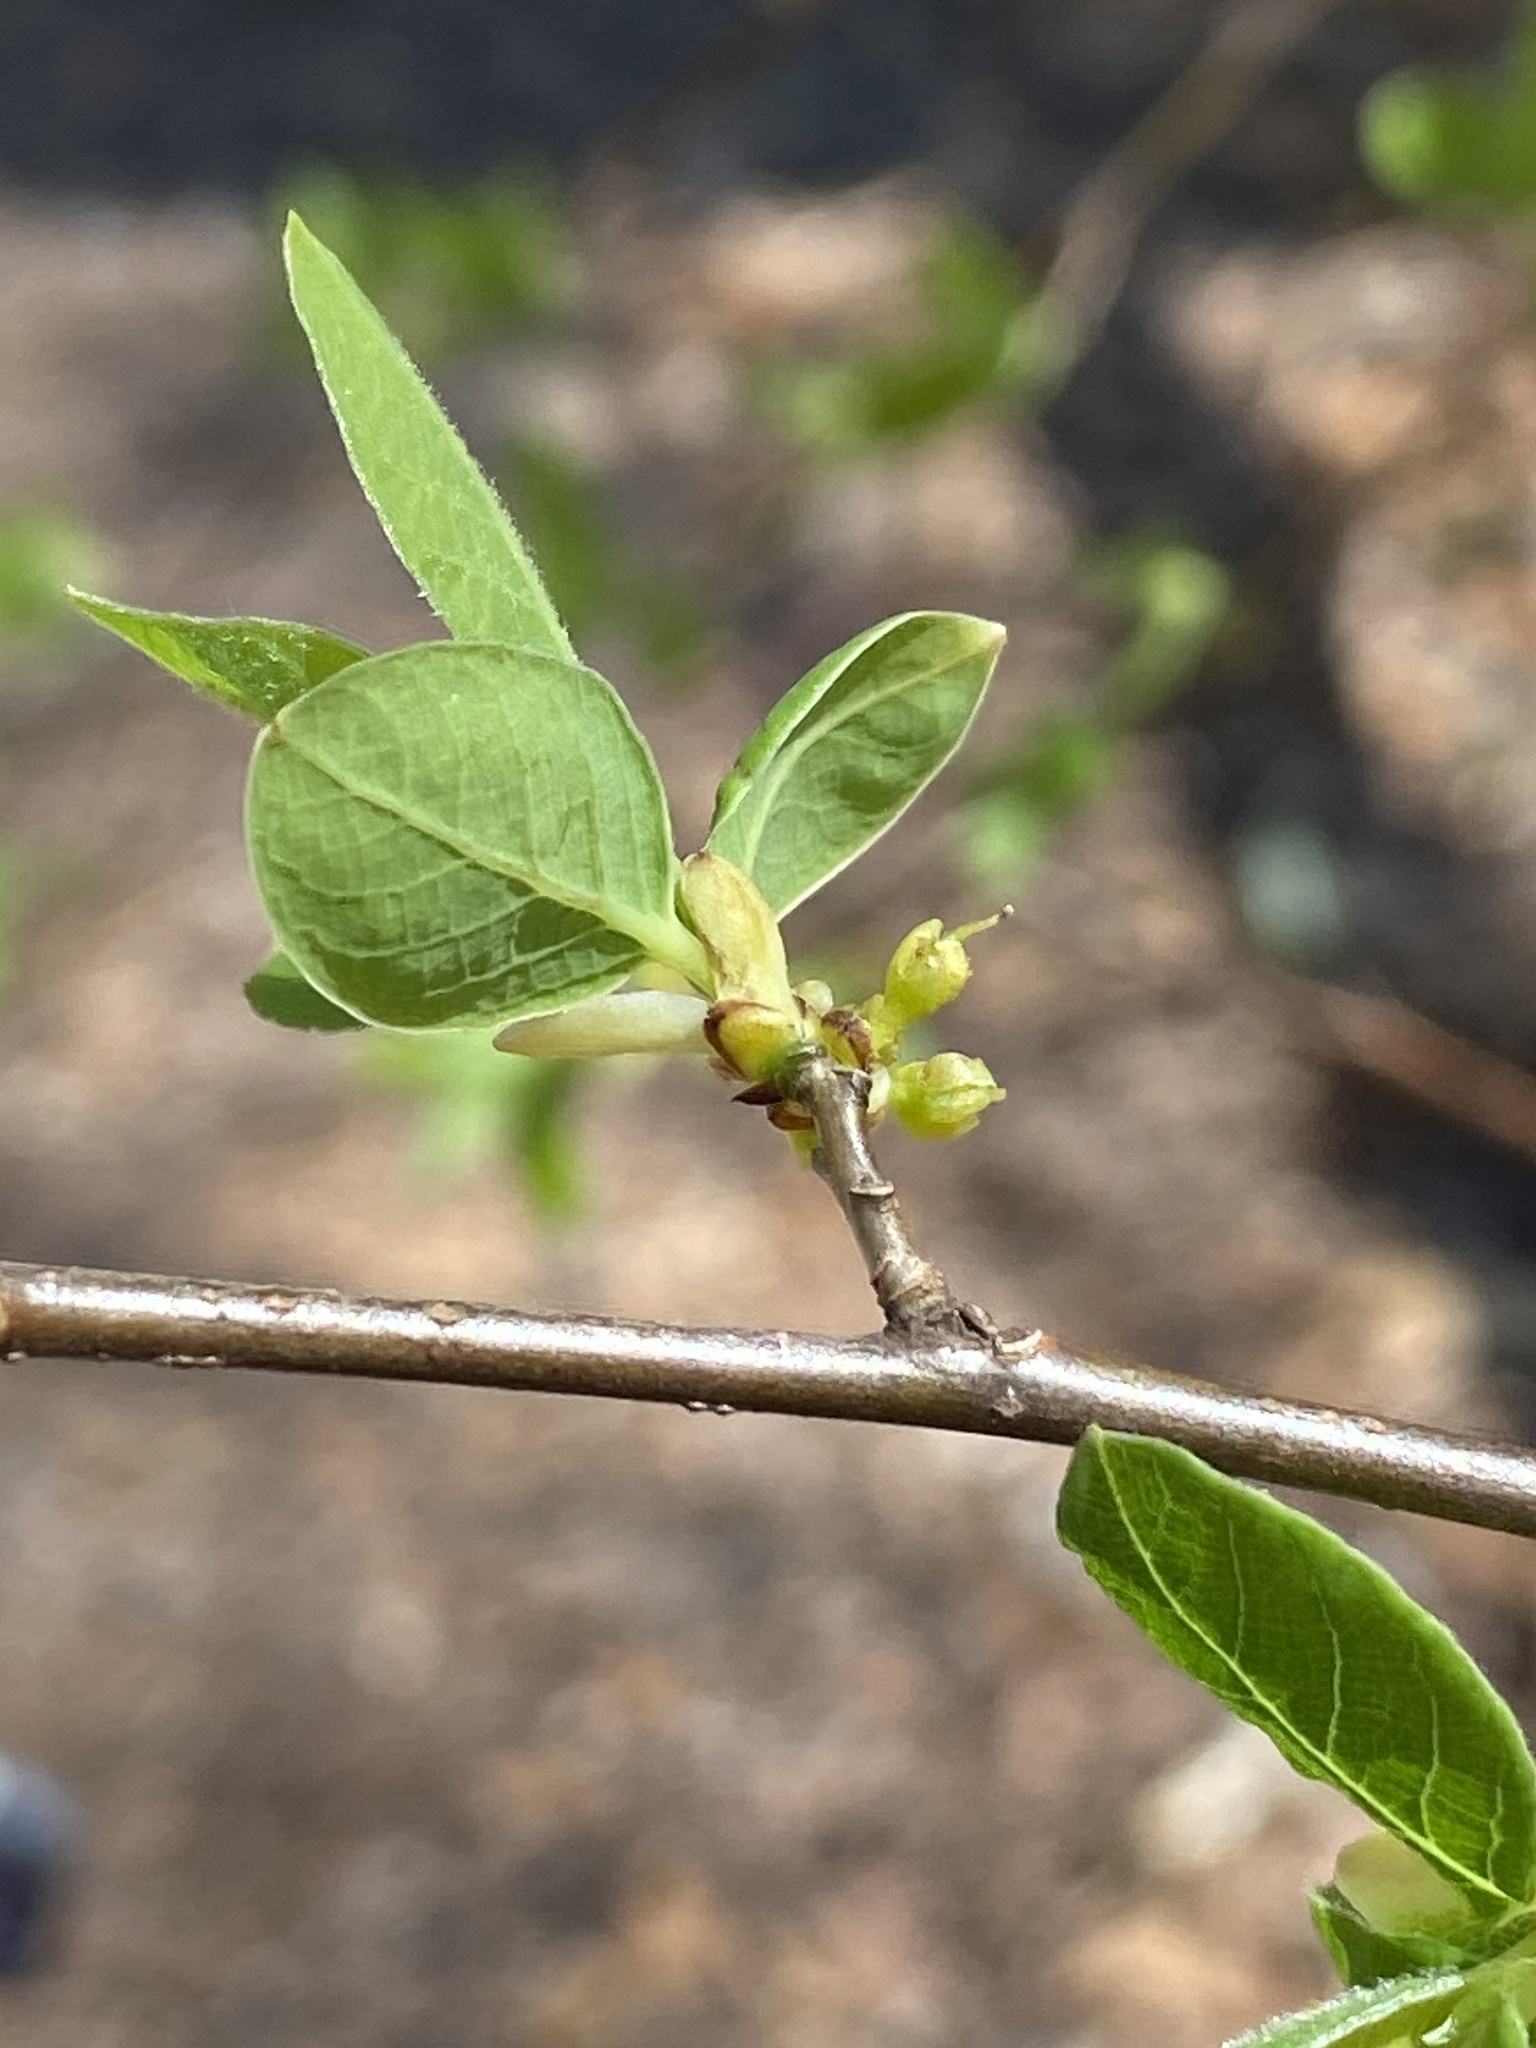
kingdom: Plantae
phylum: Tracheophyta
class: Magnoliopsida
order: Laurales
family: Lauraceae
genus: Lindera
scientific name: Lindera benzoin
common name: Spicebush
